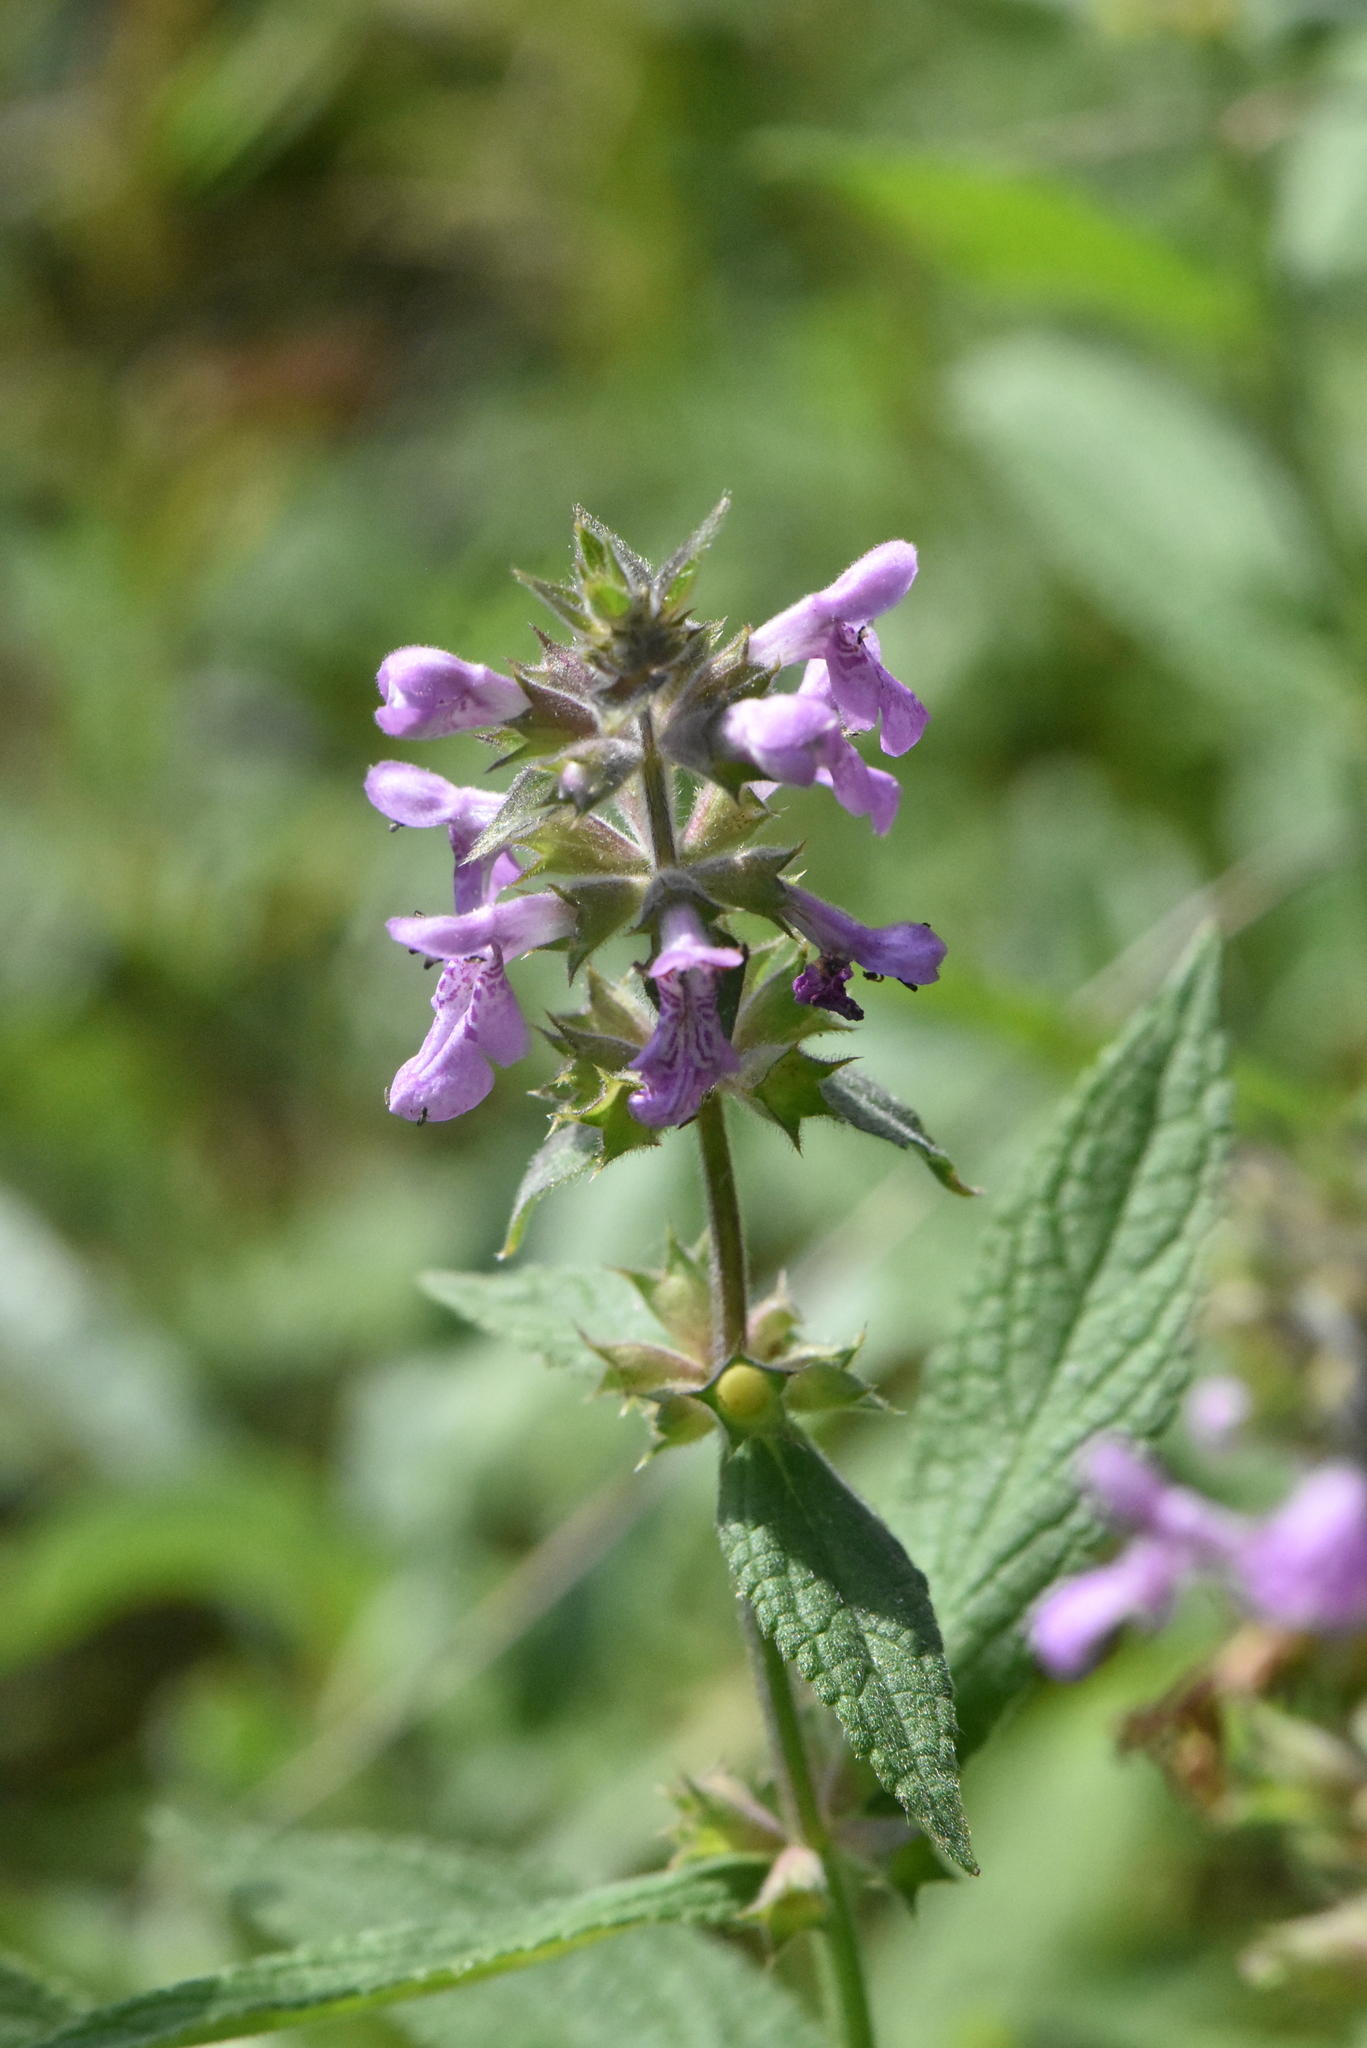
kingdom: Plantae
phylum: Tracheophyta
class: Magnoliopsida
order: Lamiales
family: Lamiaceae
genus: Stachys
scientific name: Stachys palustris
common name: Marsh woundwort
